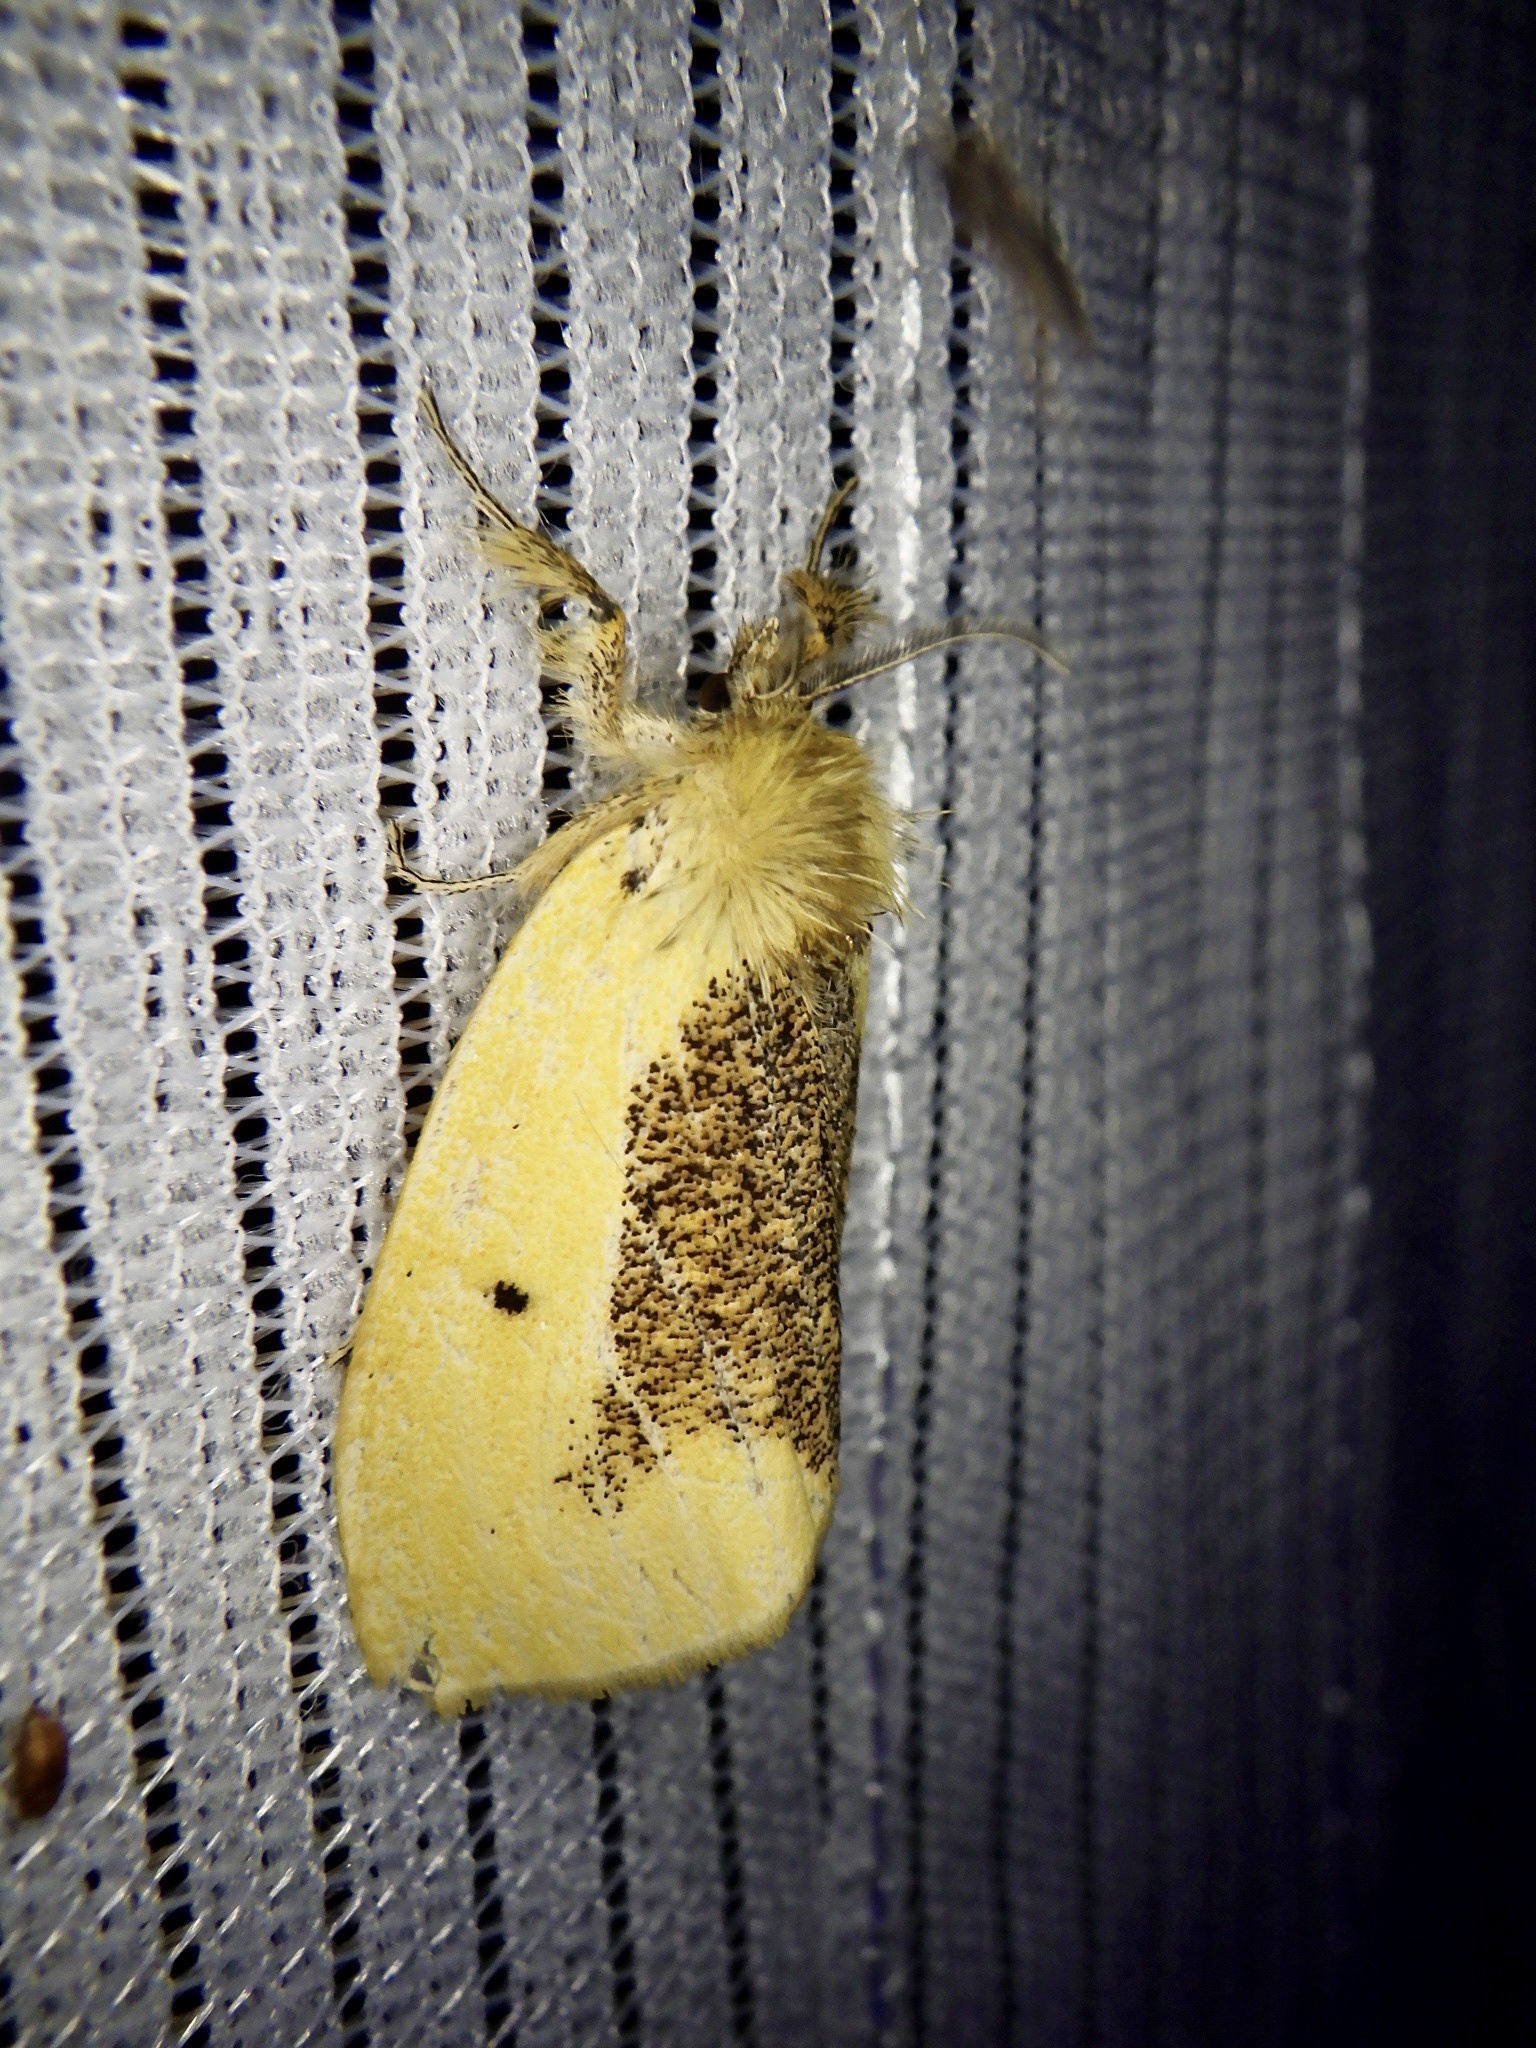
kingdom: Animalia
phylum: Arthropoda
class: Insecta
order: Lepidoptera
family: Erebidae
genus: Kuromondokuga
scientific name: Kuromondokuga niphonis
